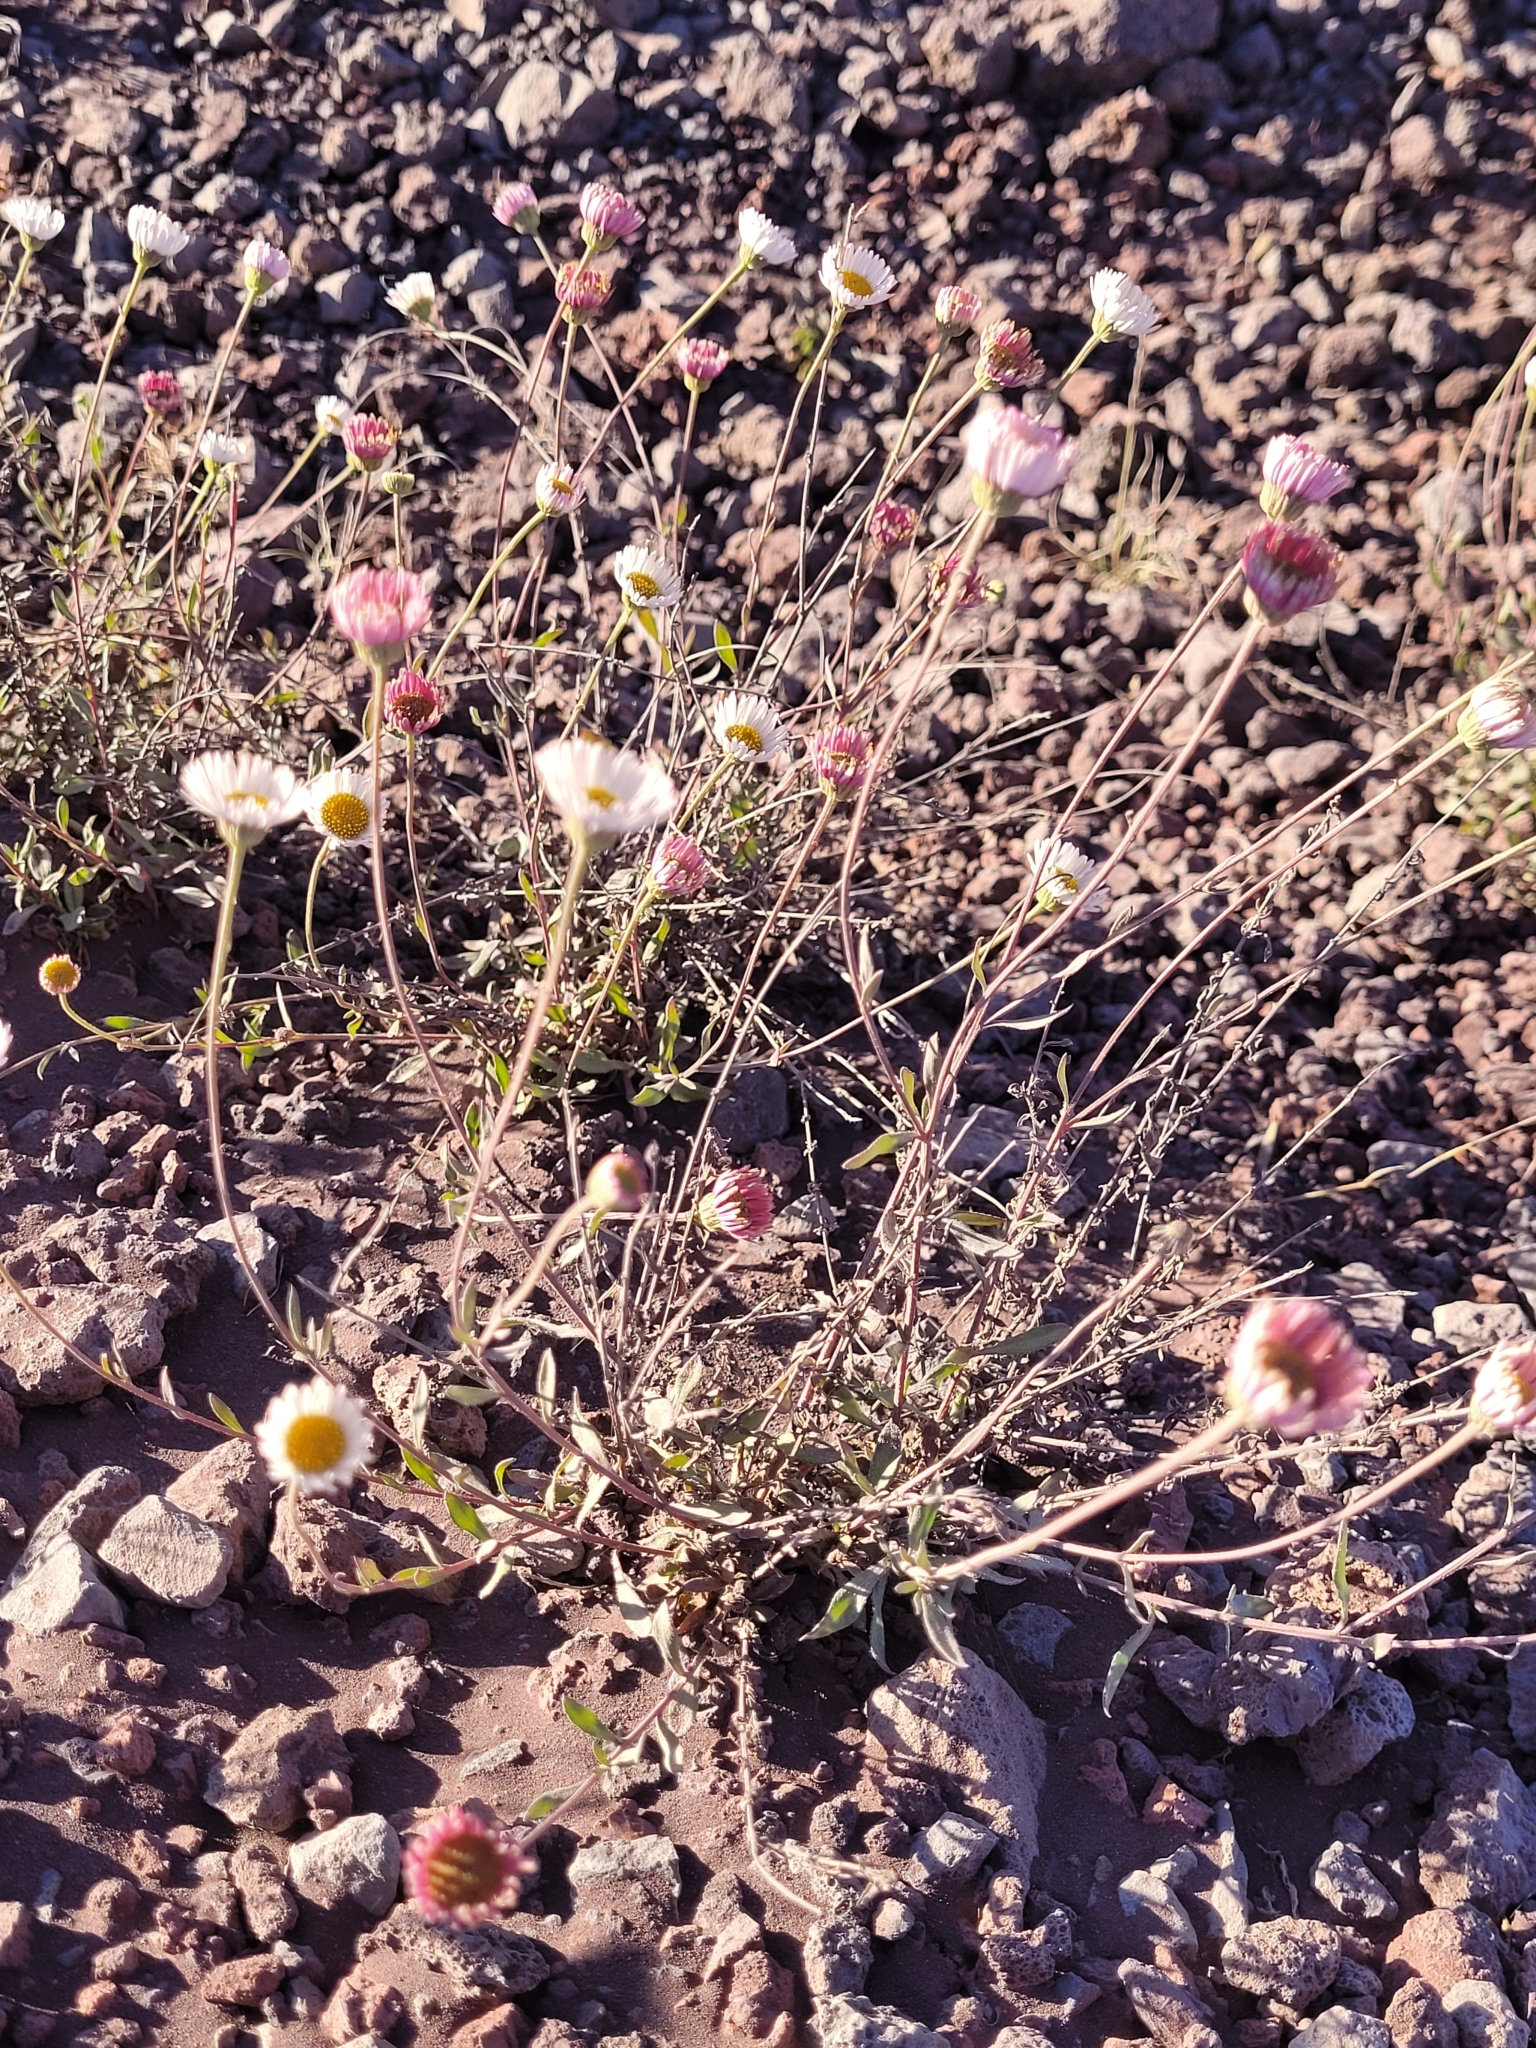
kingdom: Plantae
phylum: Tracheophyta
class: Magnoliopsida
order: Asterales
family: Asteraceae
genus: Erigeron
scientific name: Erigeron karvinskianus
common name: Mexican fleabane
